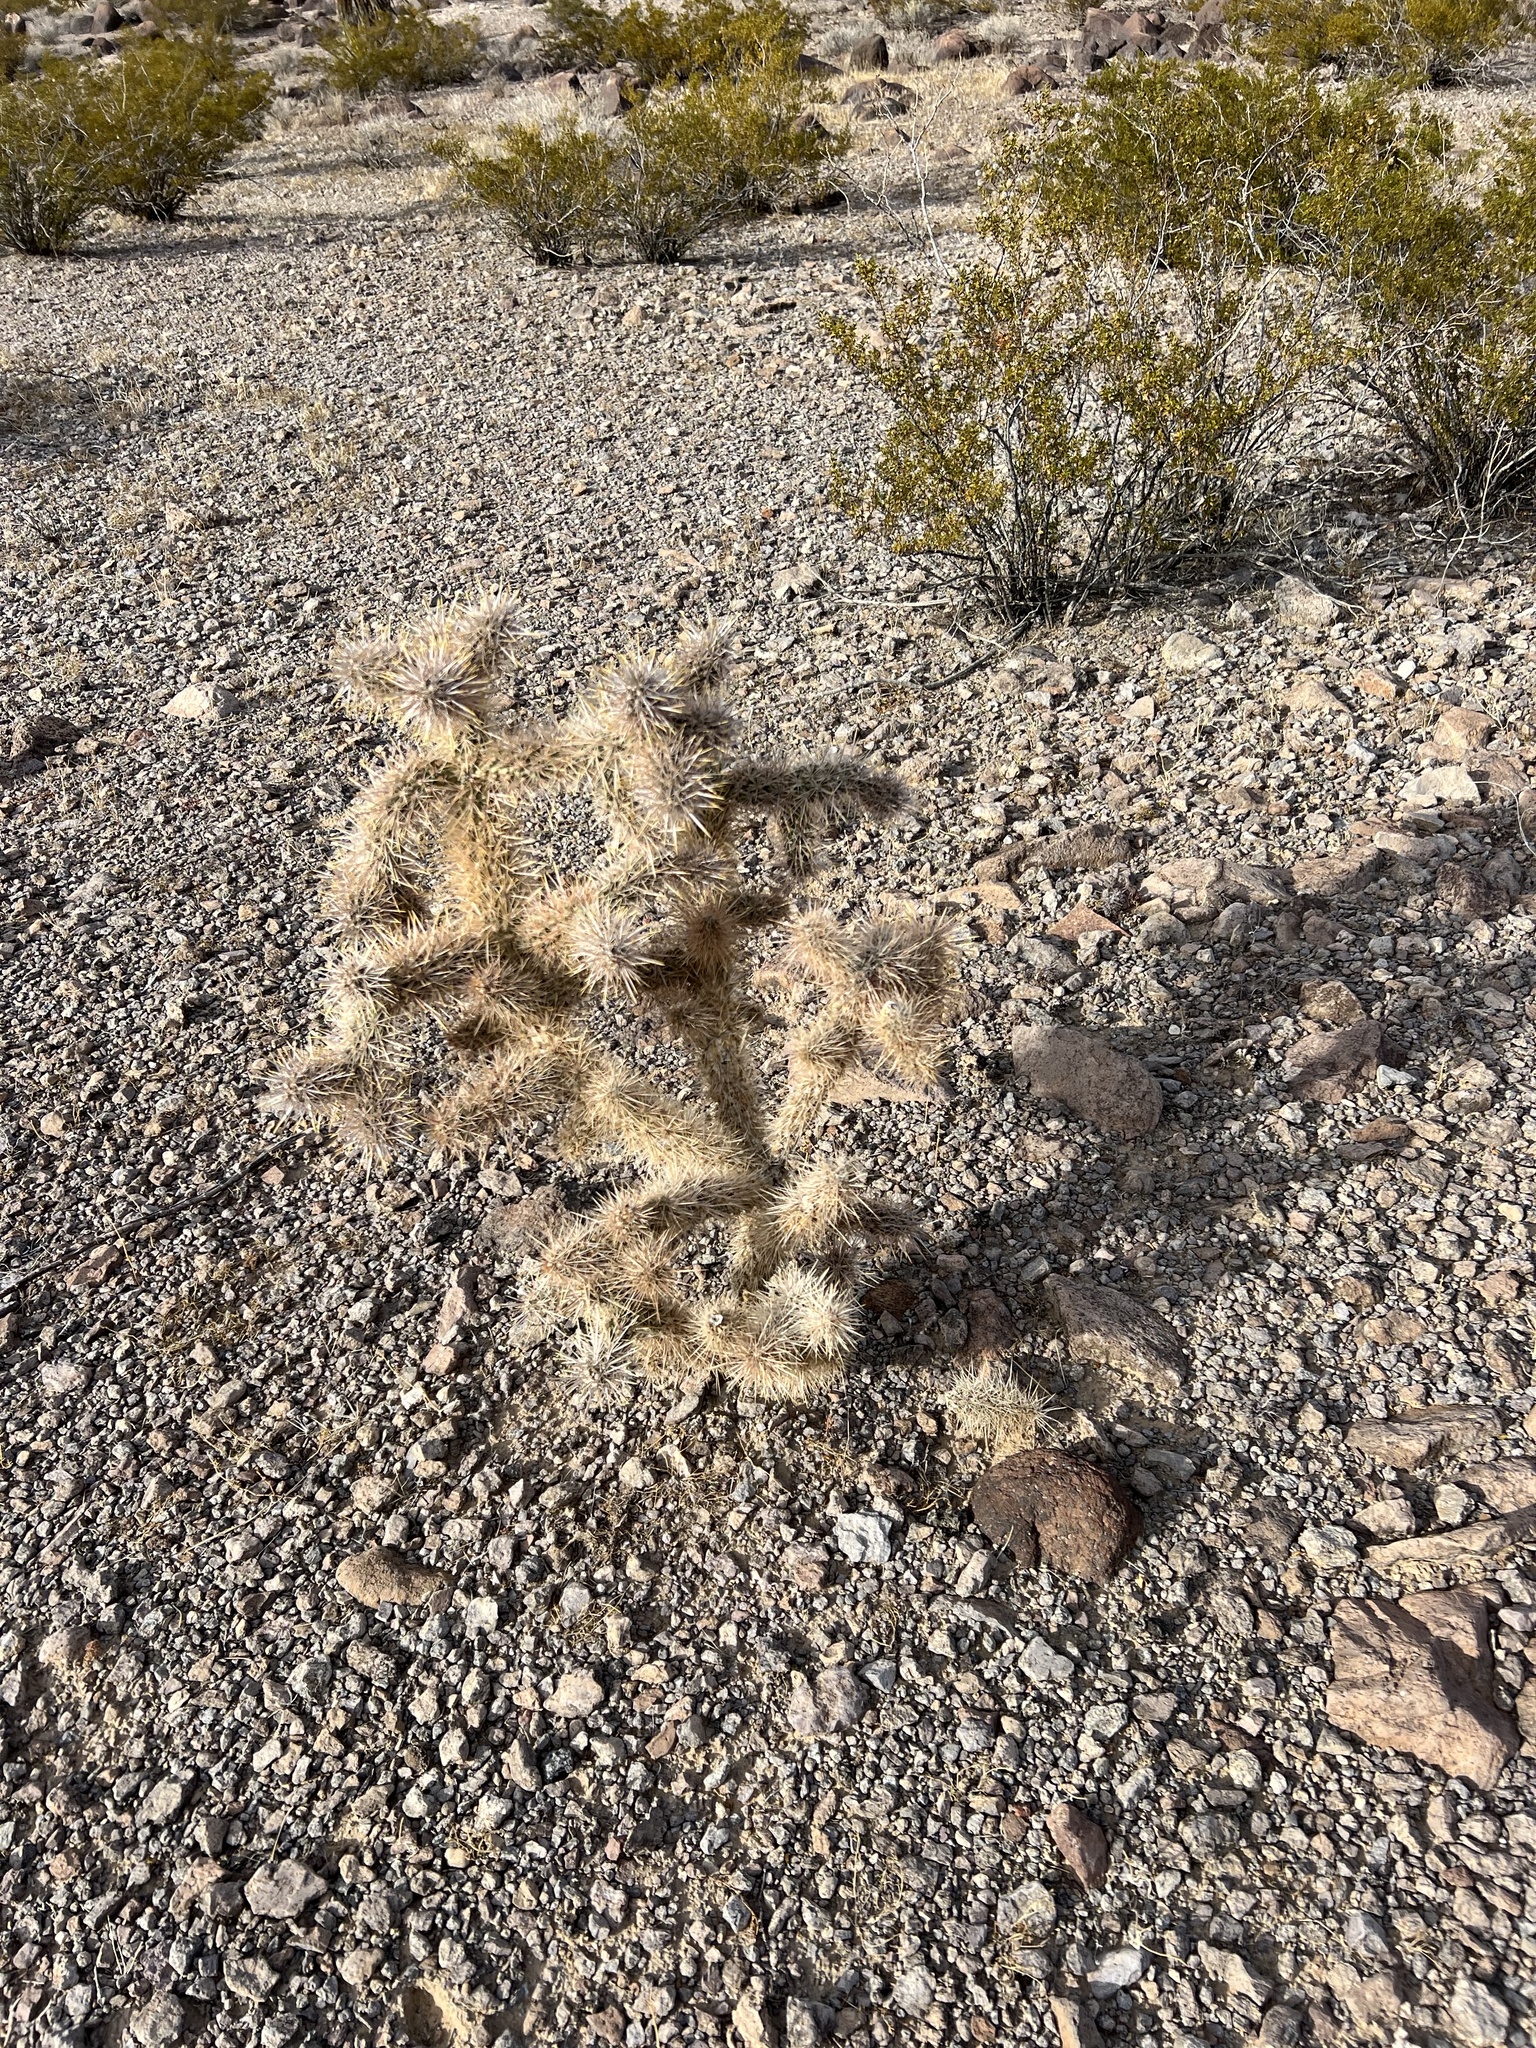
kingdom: Plantae
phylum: Tracheophyta
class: Magnoliopsida
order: Caryophyllales
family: Cactaceae
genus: Cylindropuntia
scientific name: Cylindropuntia echinocarpa
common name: Ground cholla
